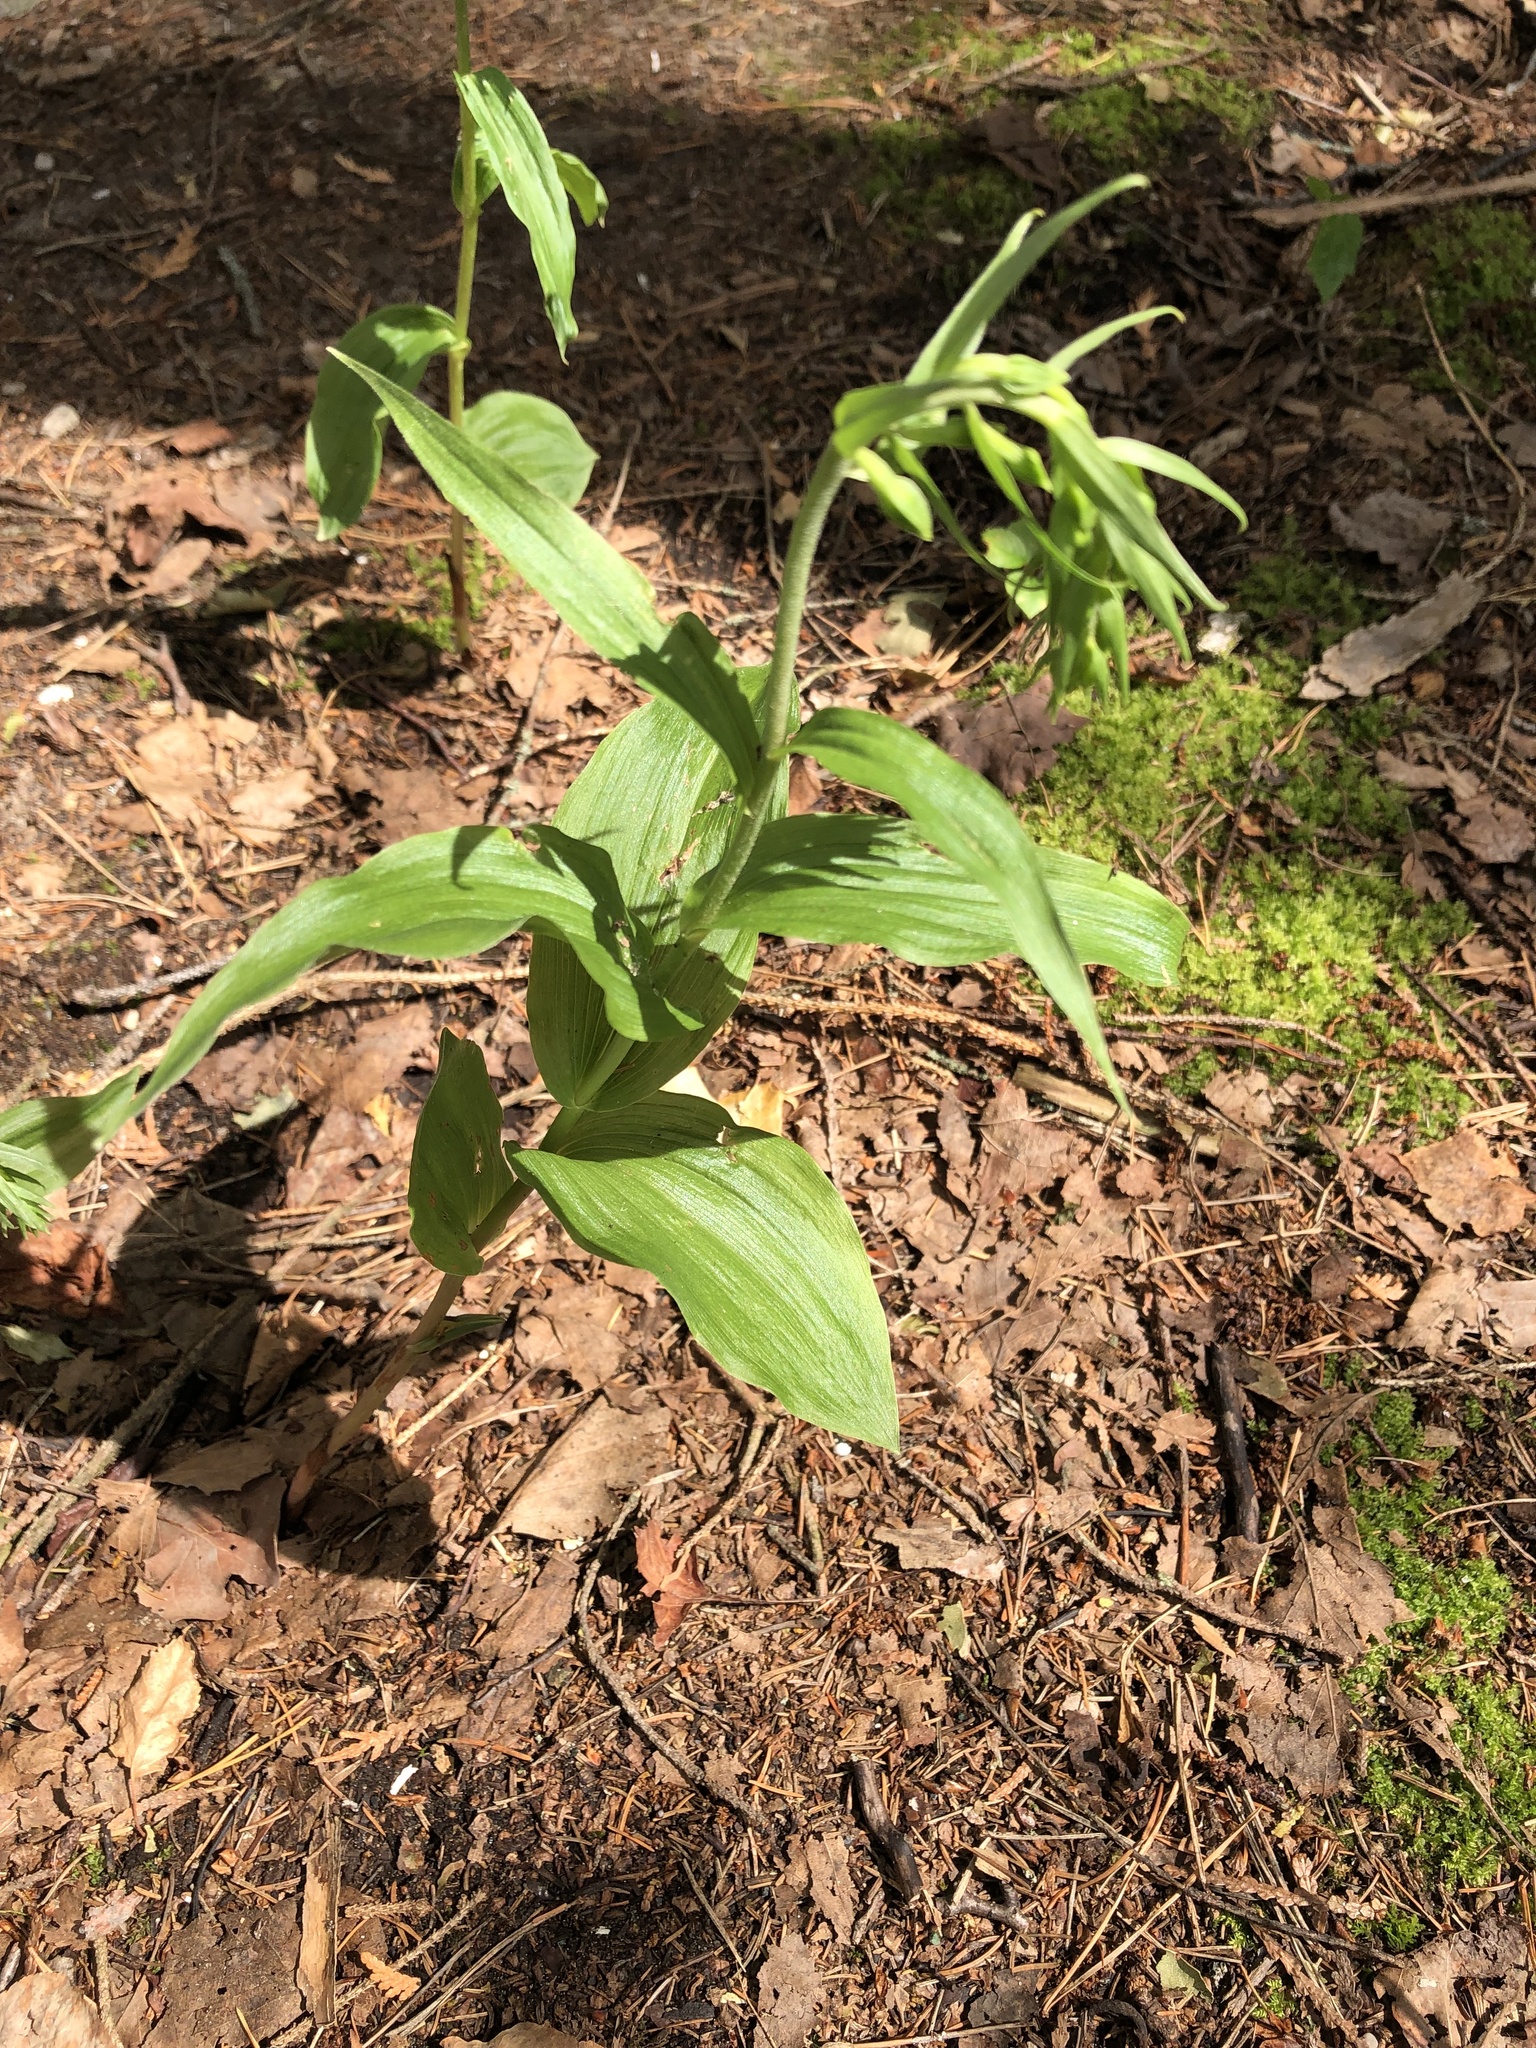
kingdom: Plantae
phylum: Tracheophyta
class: Liliopsida
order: Asparagales
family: Orchidaceae
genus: Epipactis
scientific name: Epipactis helleborine
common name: Broad-leaved helleborine
